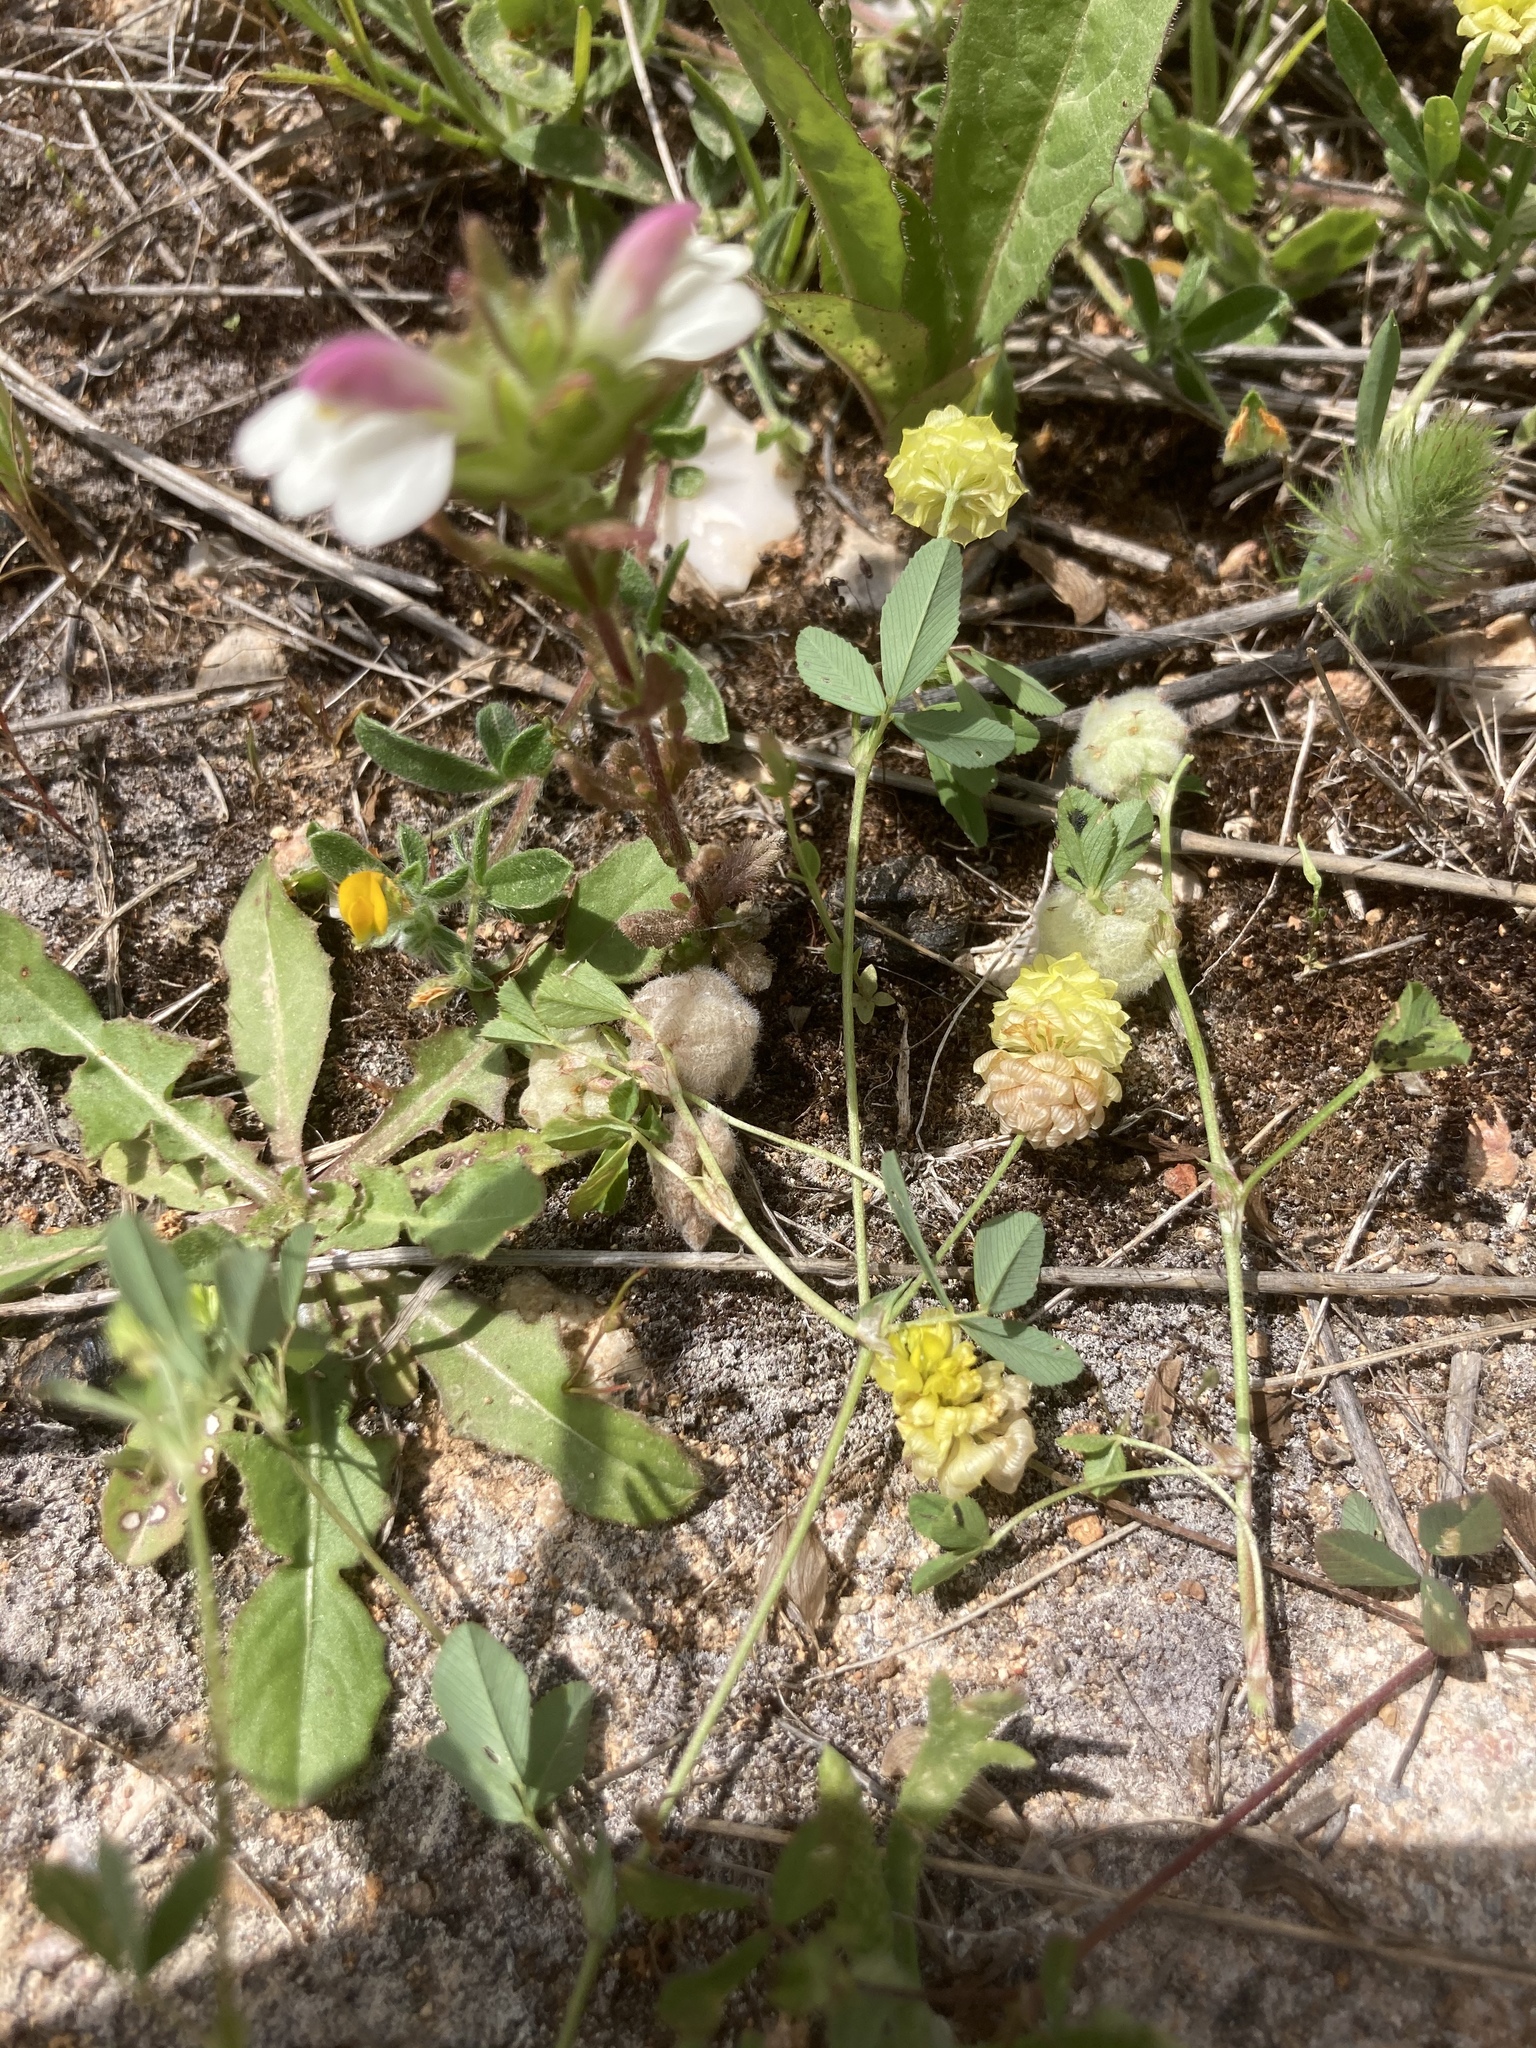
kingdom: Plantae
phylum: Tracheophyta
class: Magnoliopsida
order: Fabales
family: Fabaceae
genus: Trifolium
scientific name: Trifolium tomentosum
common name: Woolly clover
